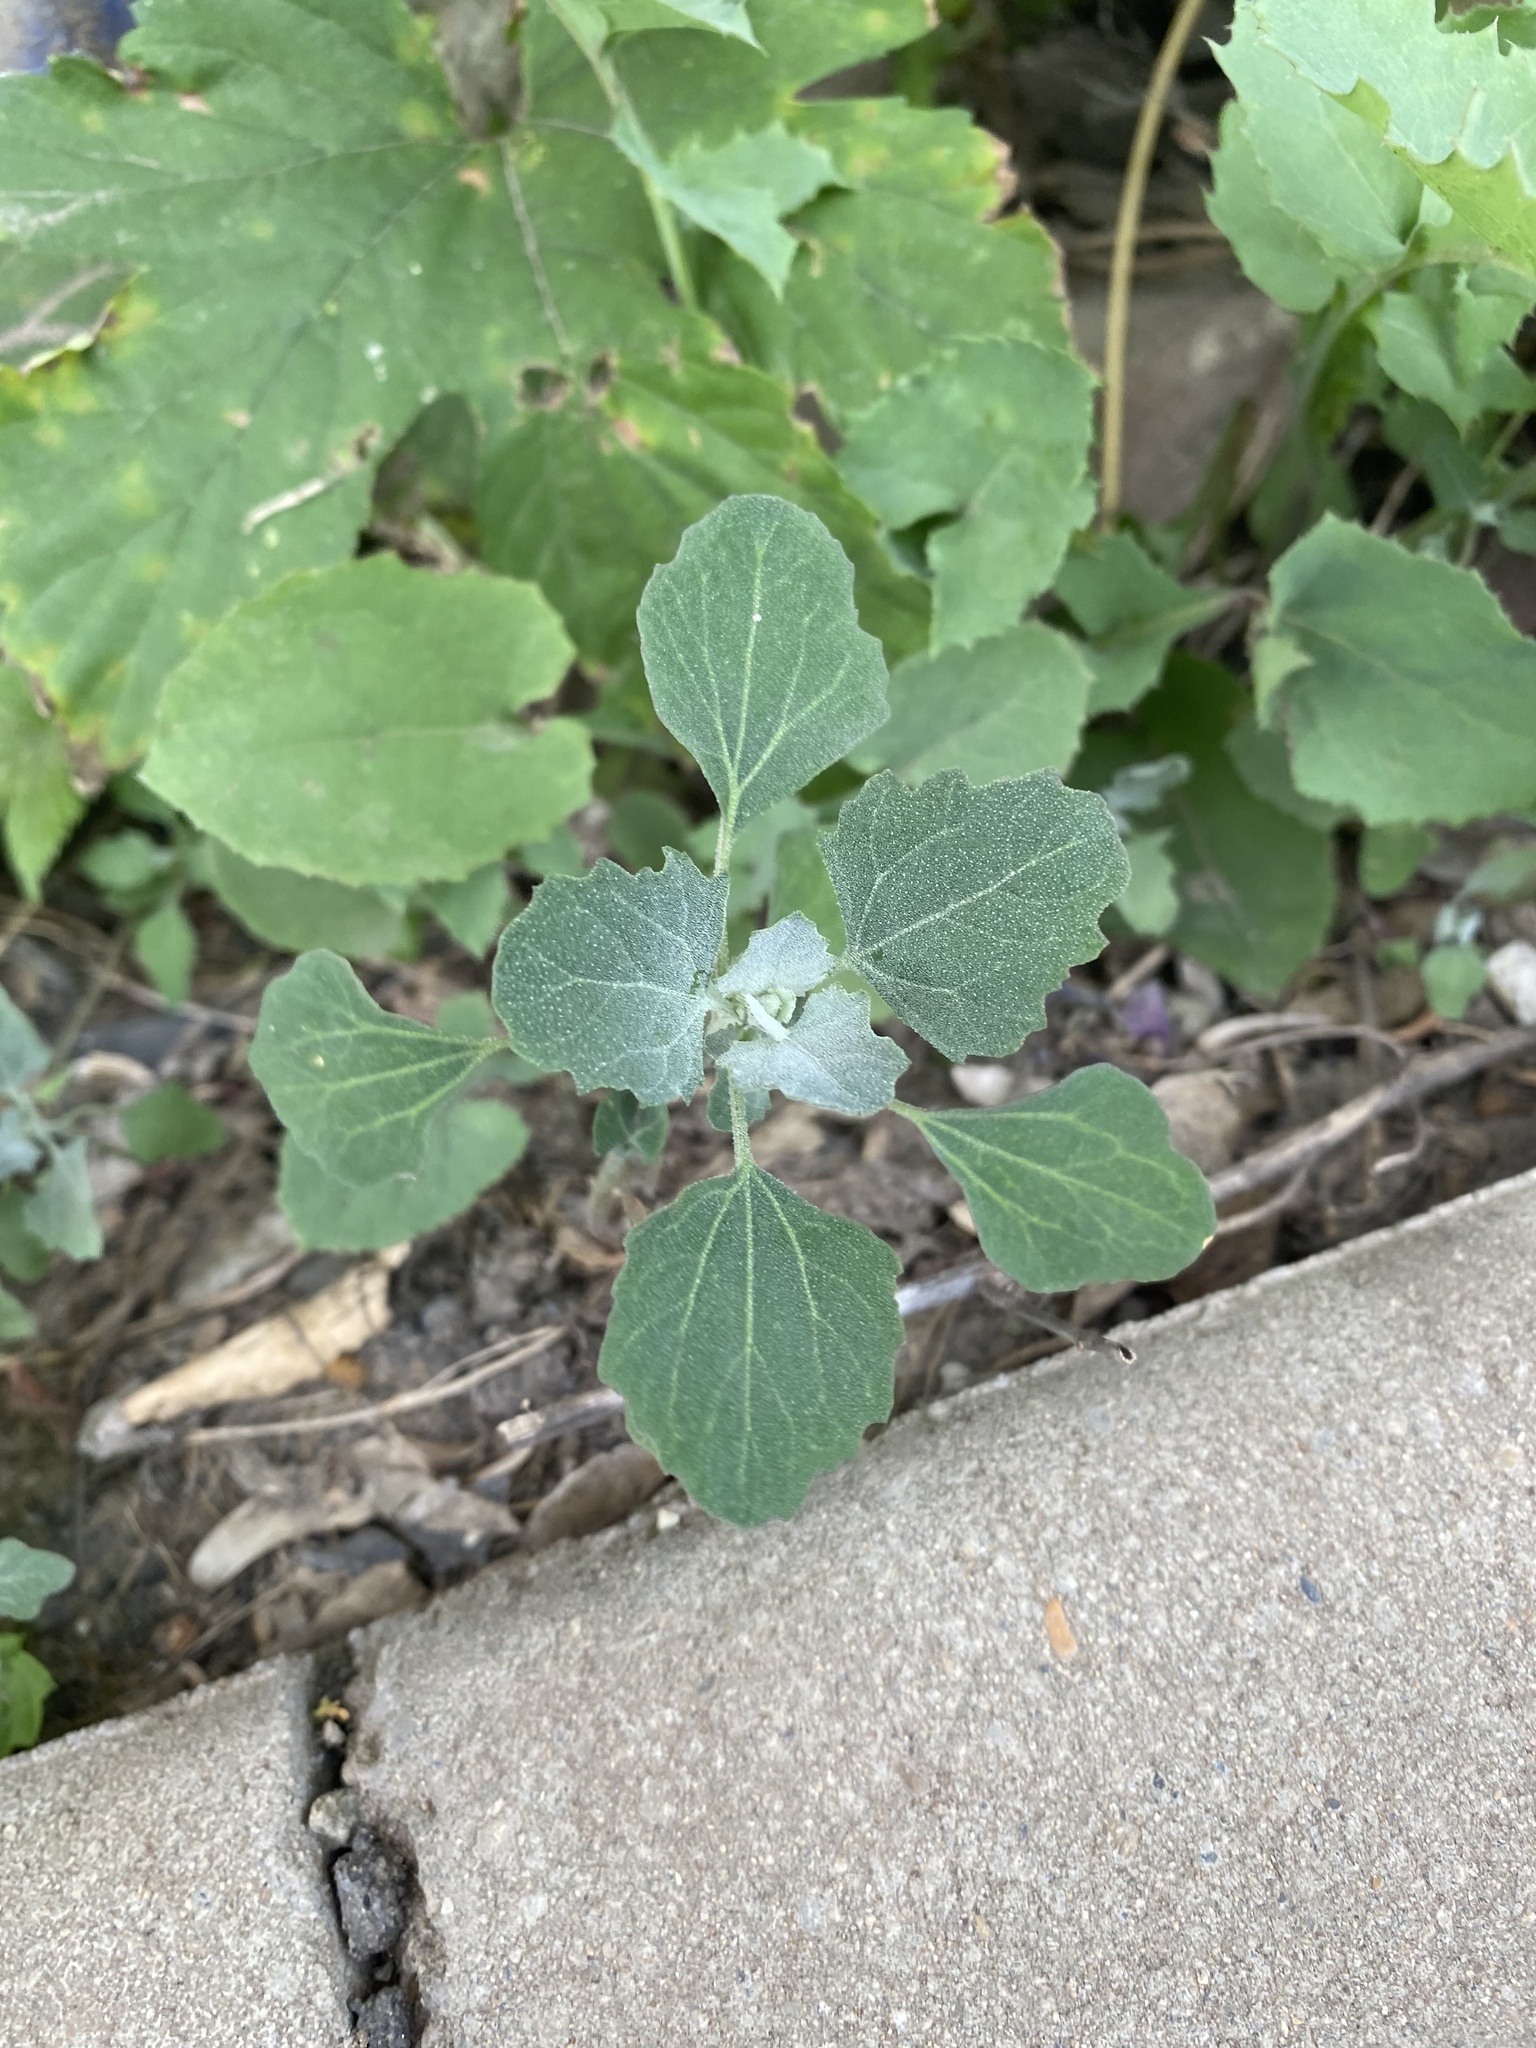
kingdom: Plantae
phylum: Tracheophyta
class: Magnoliopsida
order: Caryophyllales
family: Amaranthaceae
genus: Chenopodium
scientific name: Chenopodium album
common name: Fat-hen
